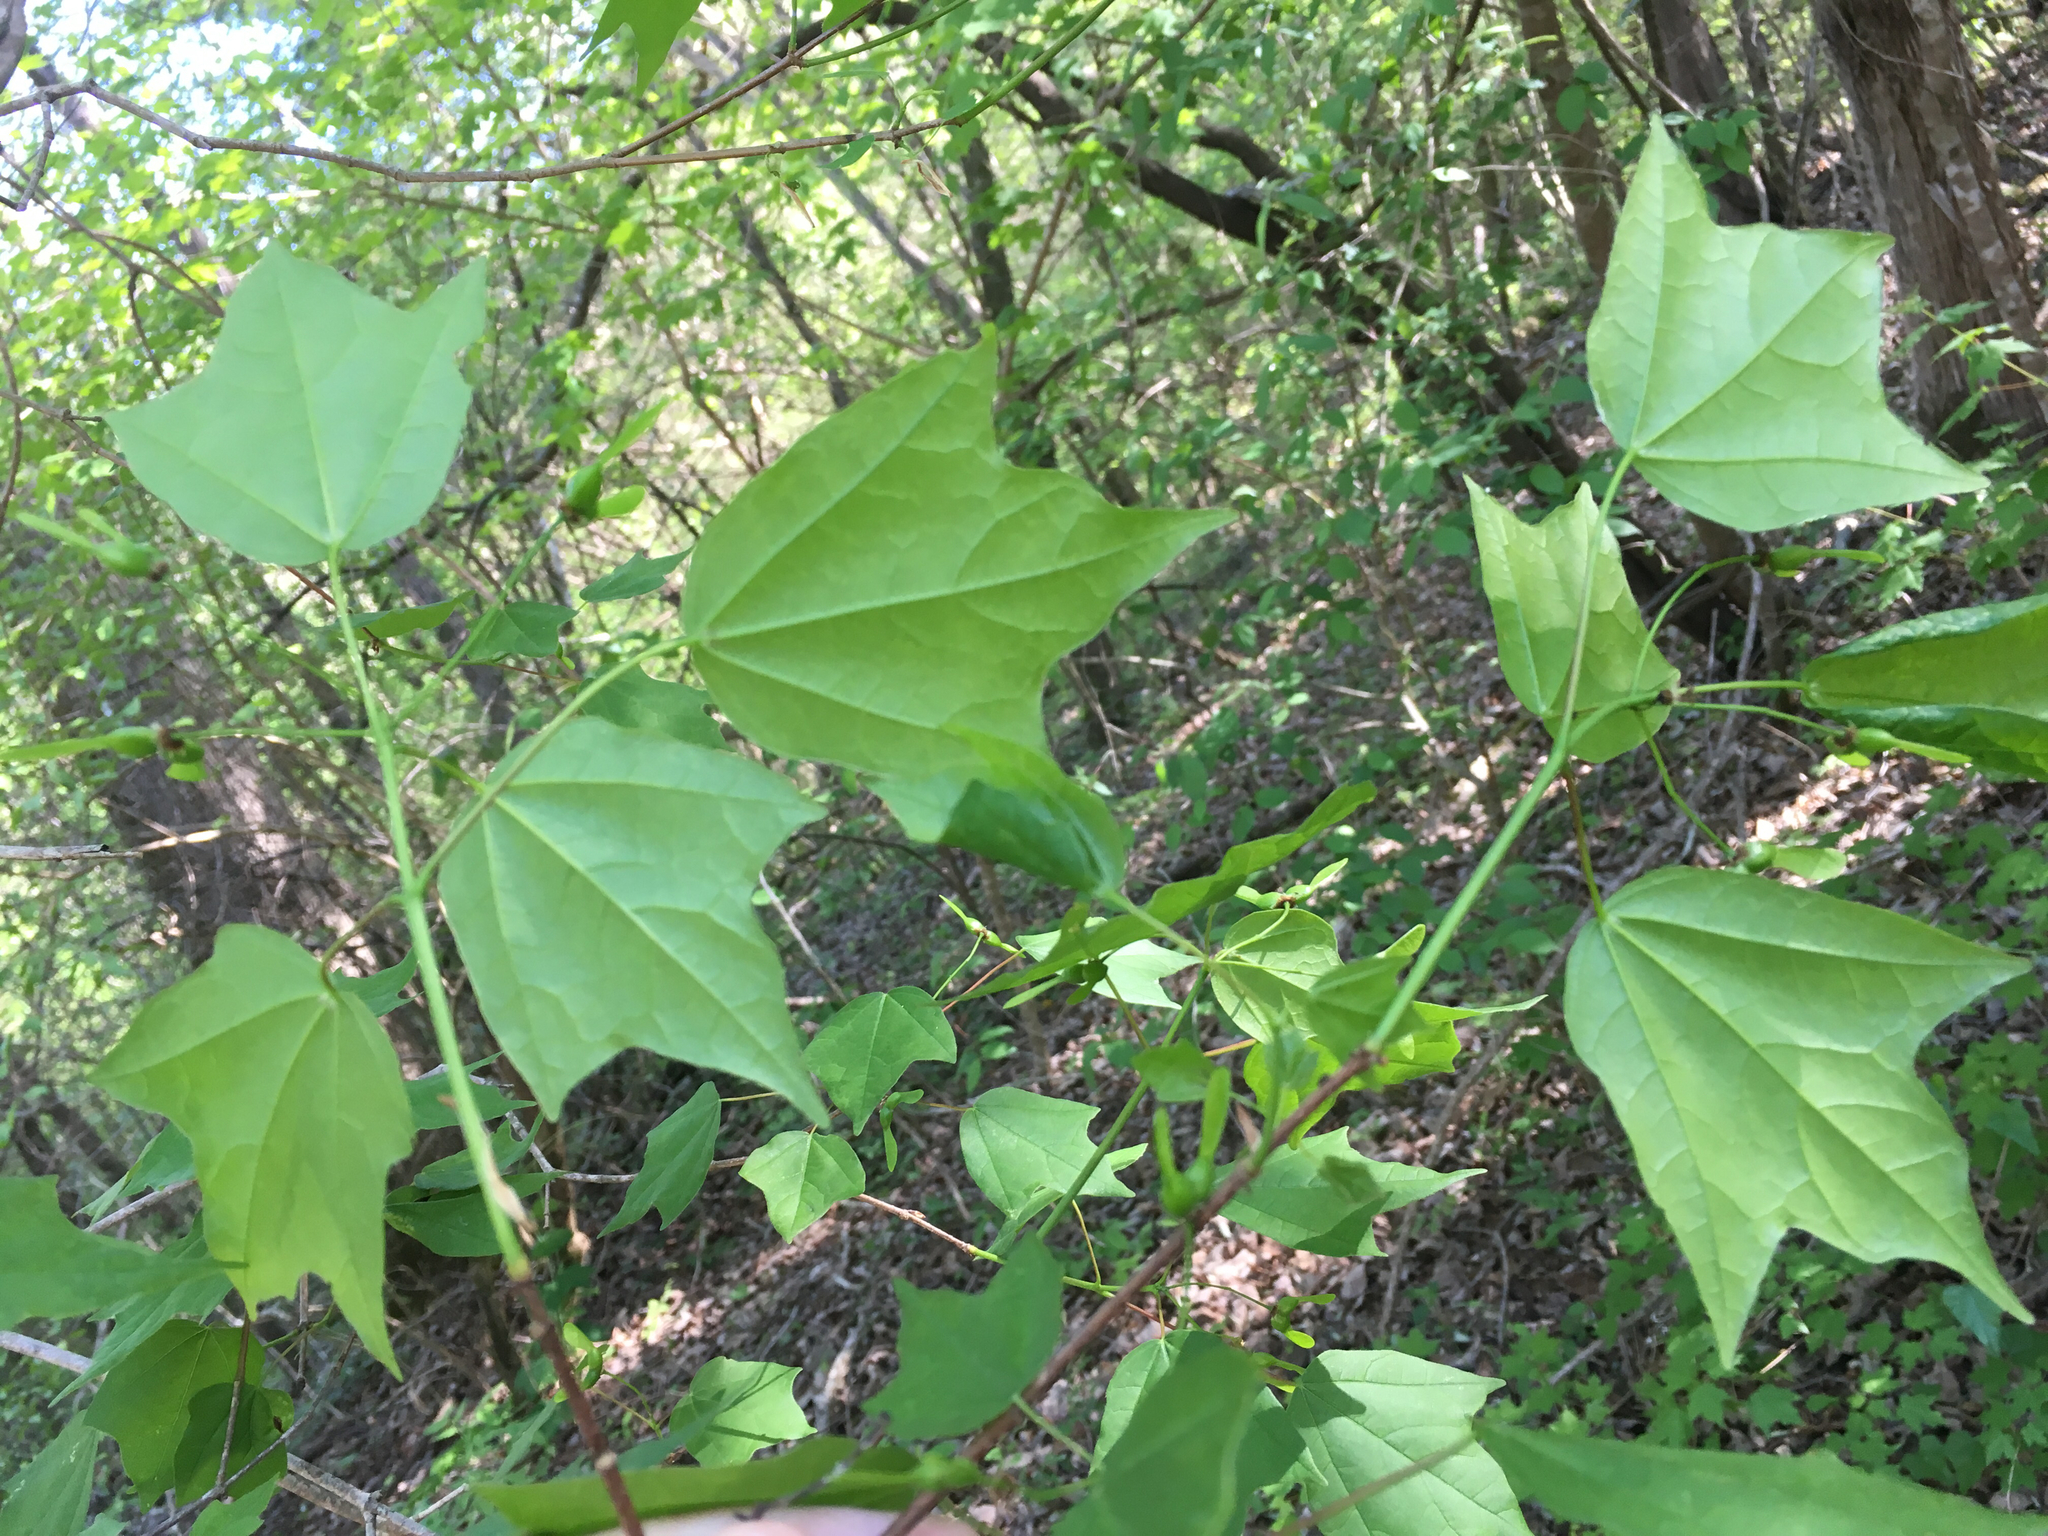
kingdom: Plantae
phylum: Tracheophyta
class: Magnoliopsida
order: Sapindales
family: Sapindaceae
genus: Acer
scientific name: Acer leucoderme
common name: Chalk maple
